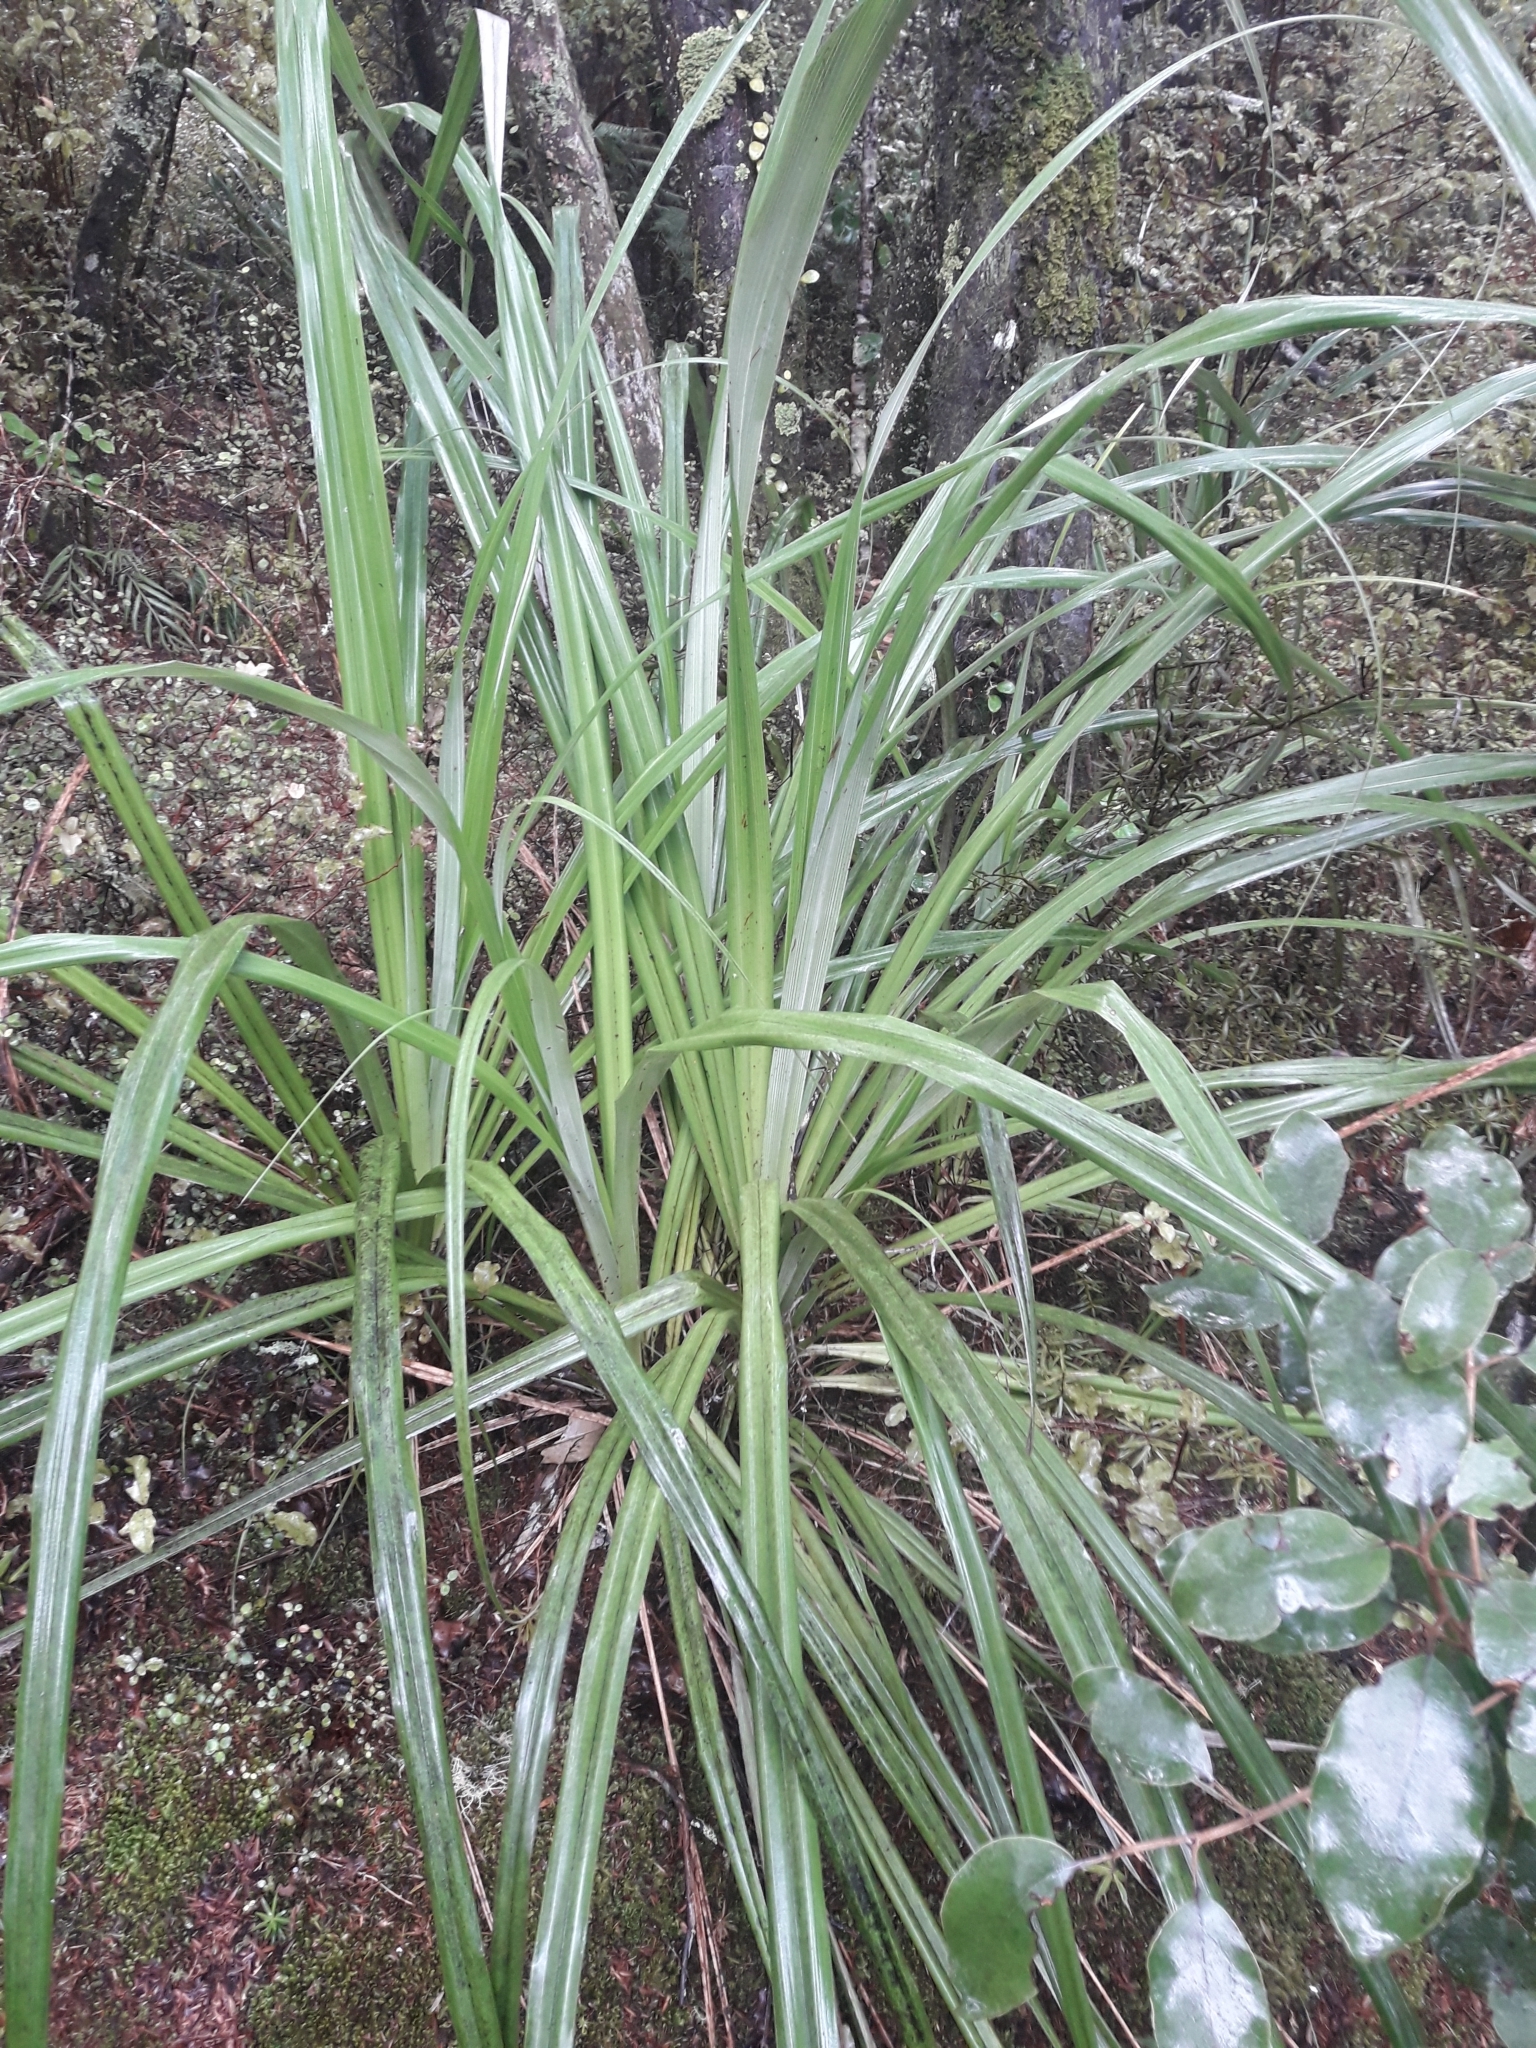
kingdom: Plantae
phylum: Tracheophyta
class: Liliopsida
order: Asparagales
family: Asteliaceae
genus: Astelia
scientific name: Astelia trinervia
